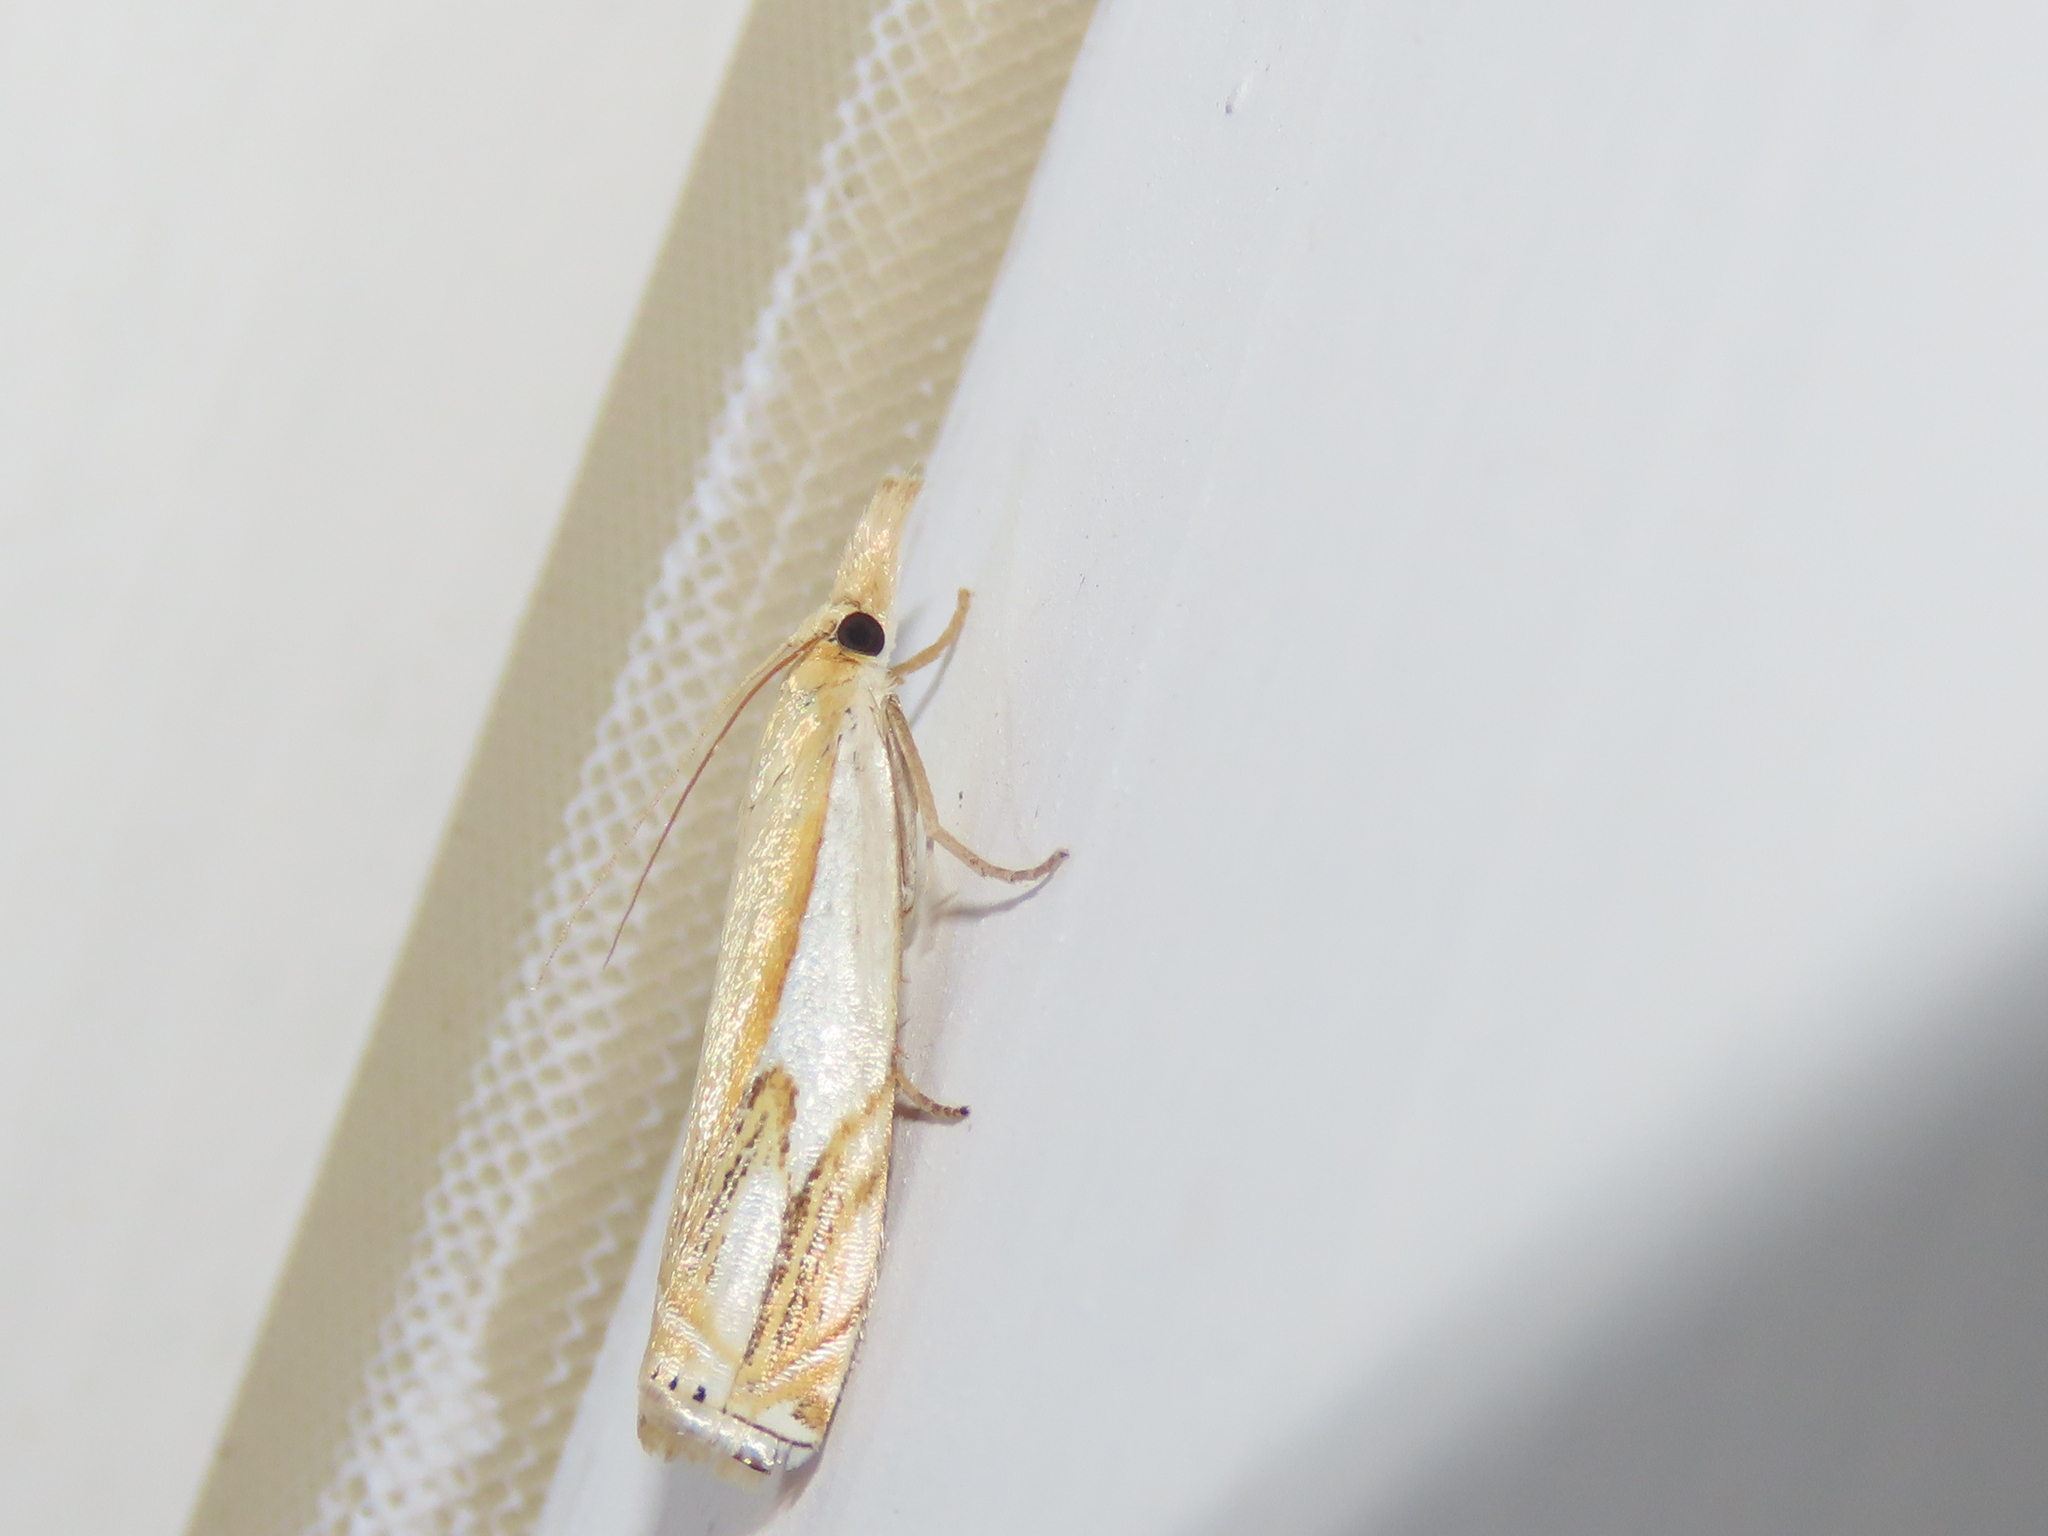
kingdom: Animalia
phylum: Arthropoda
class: Insecta
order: Lepidoptera
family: Crambidae
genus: Crambus
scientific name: Crambus agitatellus
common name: Double-banded grass-veneer
